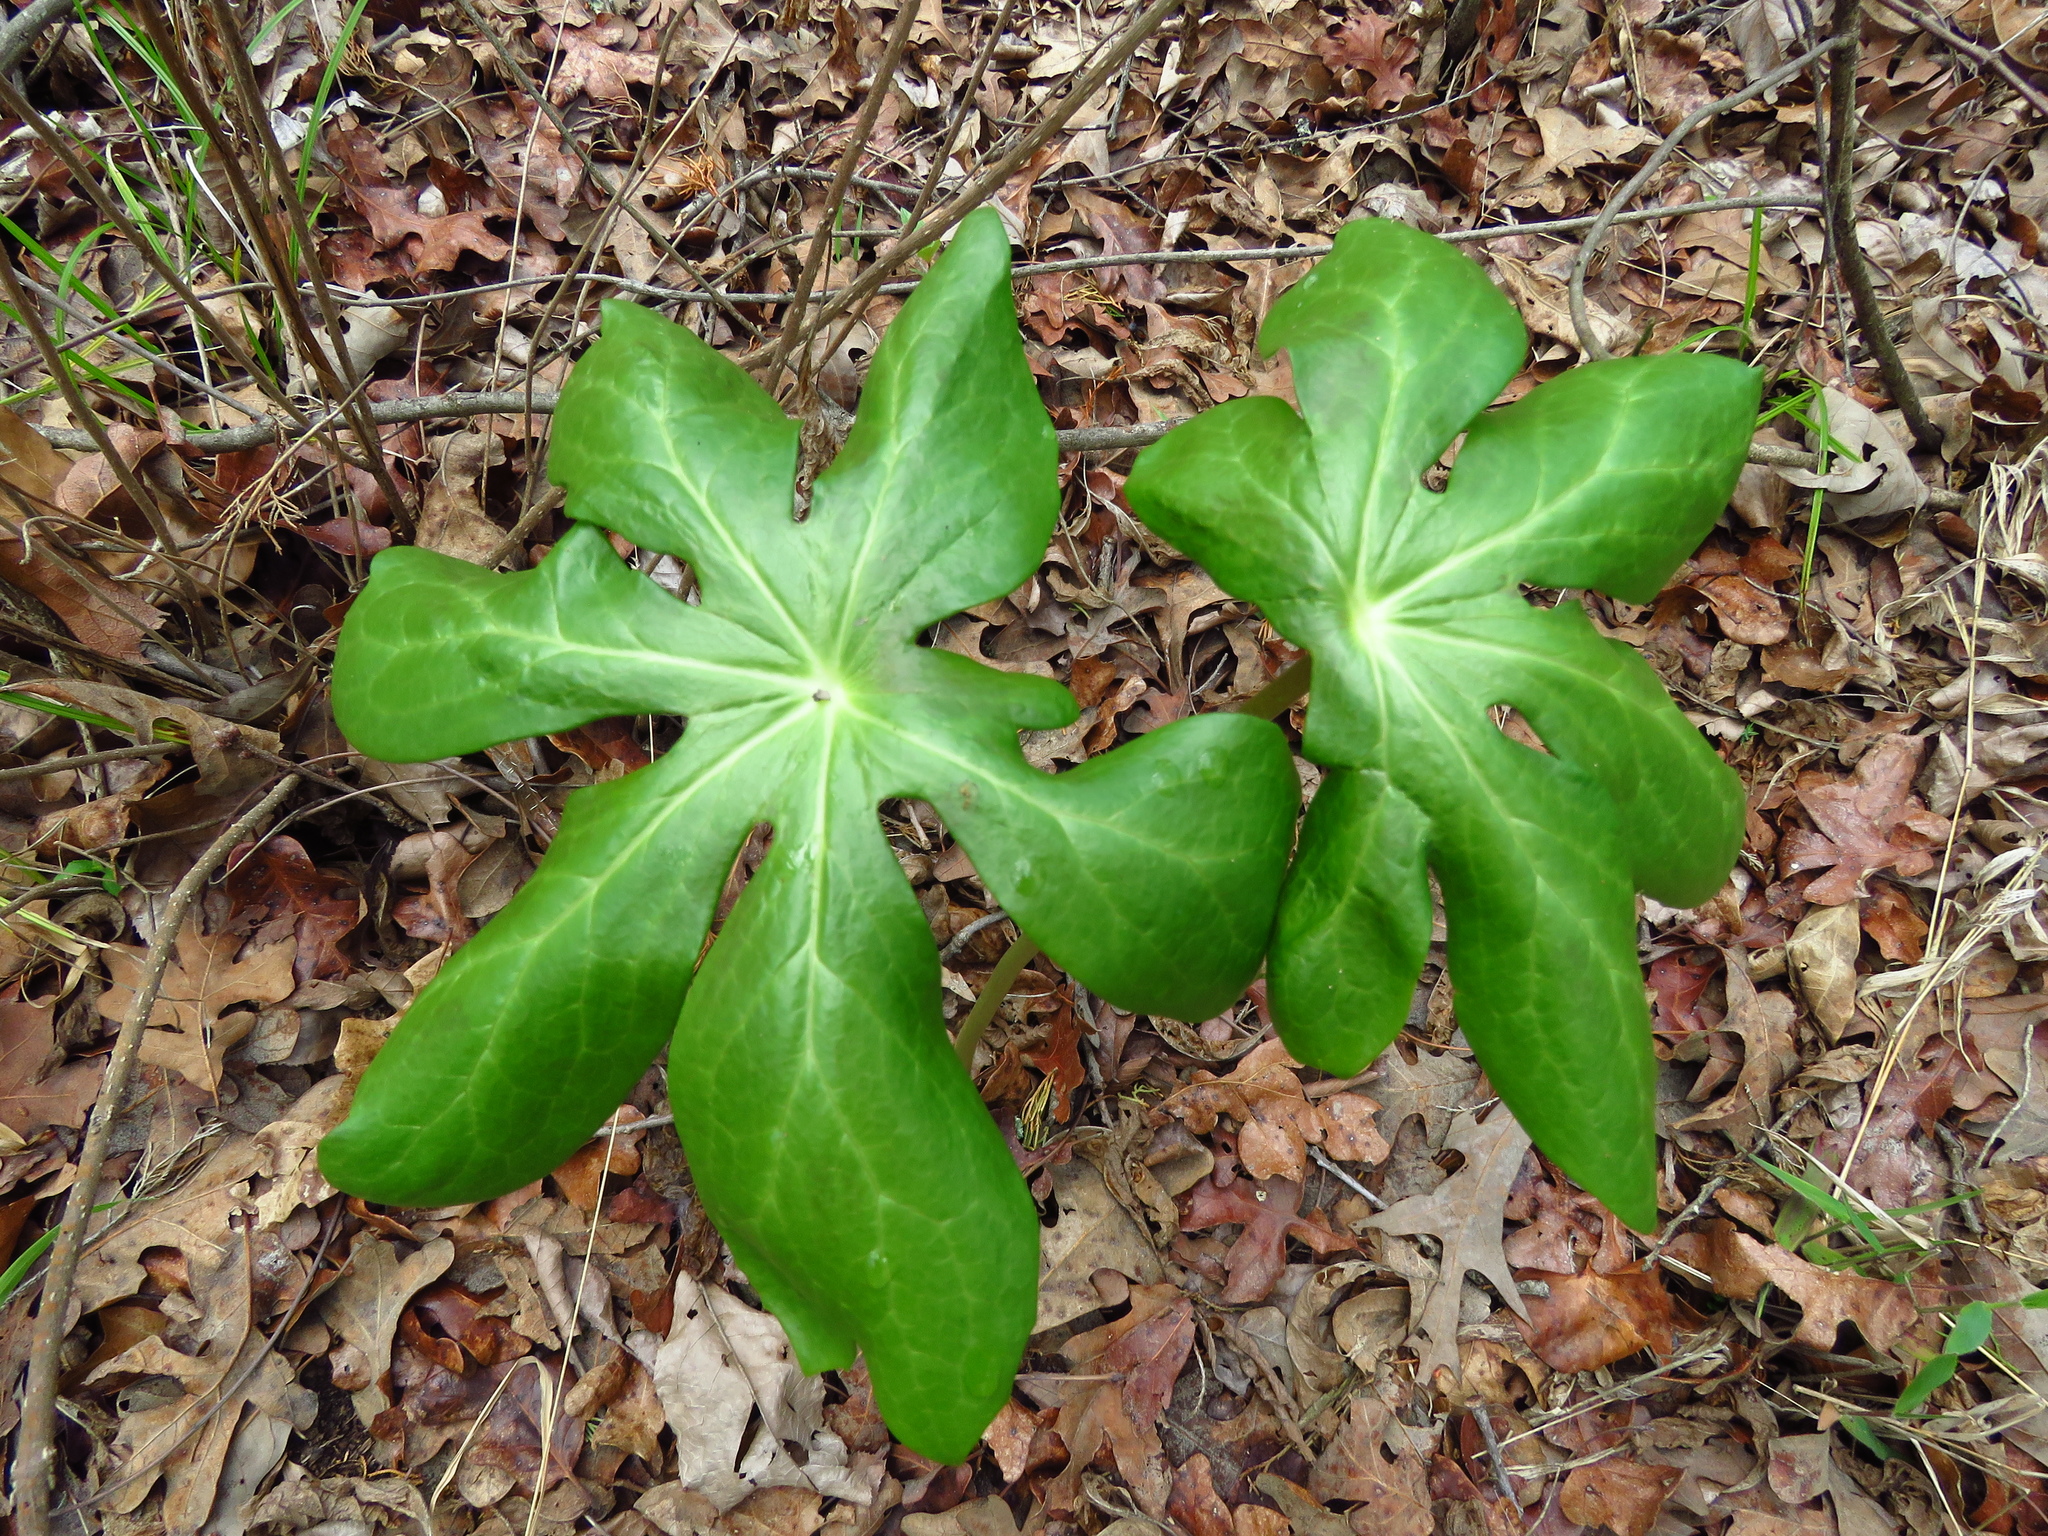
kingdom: Plantae
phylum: Tracheophyta
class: Magnoliopsida
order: Ranunculales
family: Berberidaceae
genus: Podophyllum
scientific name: Podophyllum peltatum
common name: Wild mandrake
